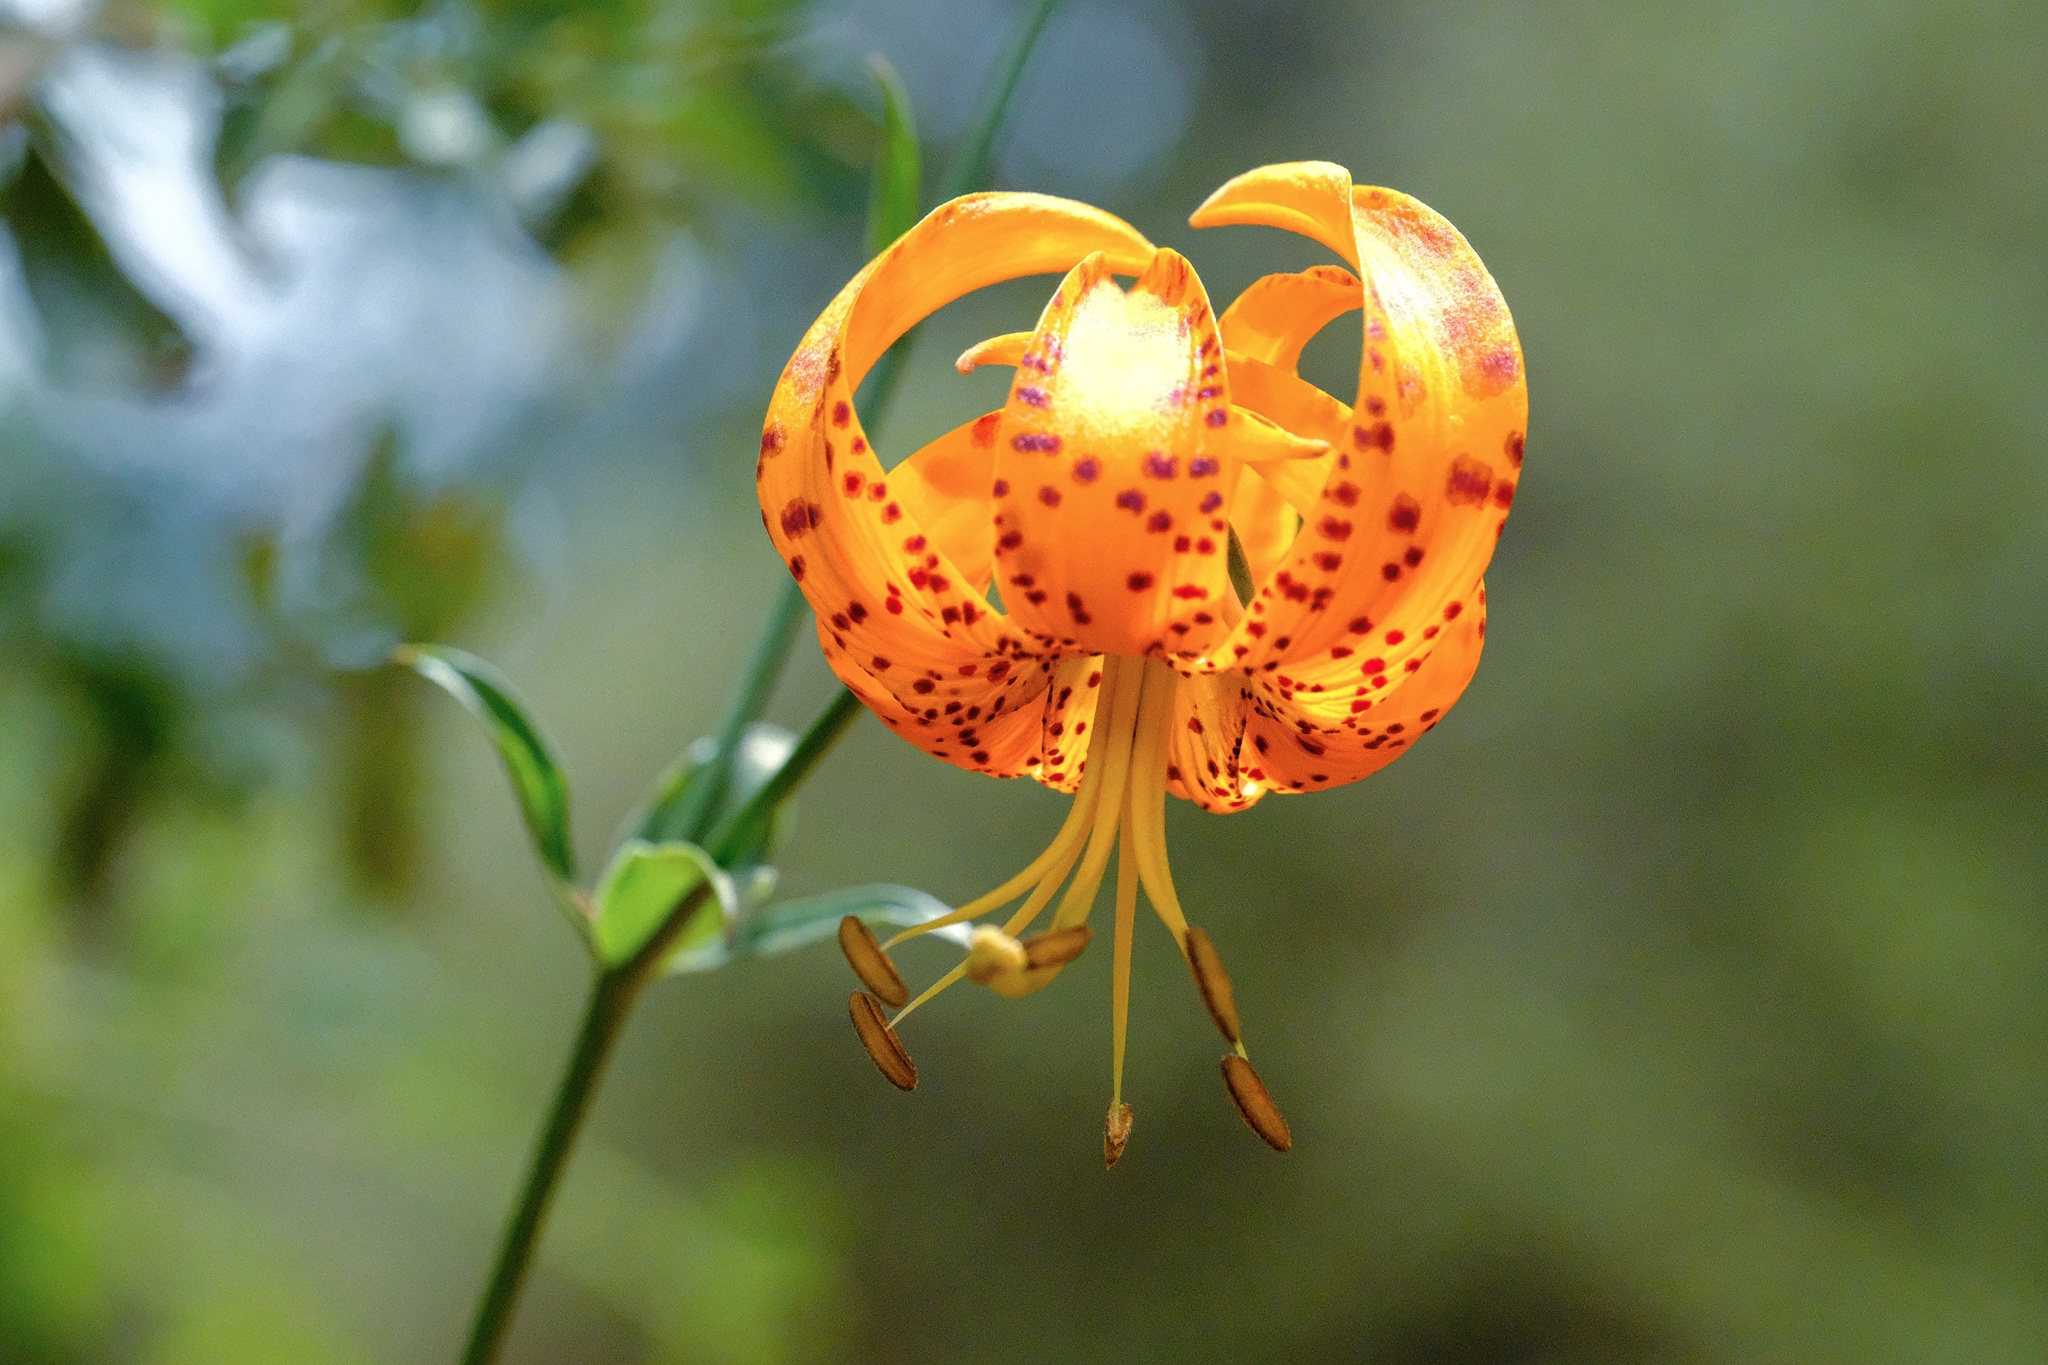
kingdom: Plantae
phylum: Tracheophyta
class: Liliopsida
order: Liliales
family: Liliaceae
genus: Lilium
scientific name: Lilium humboldtii
